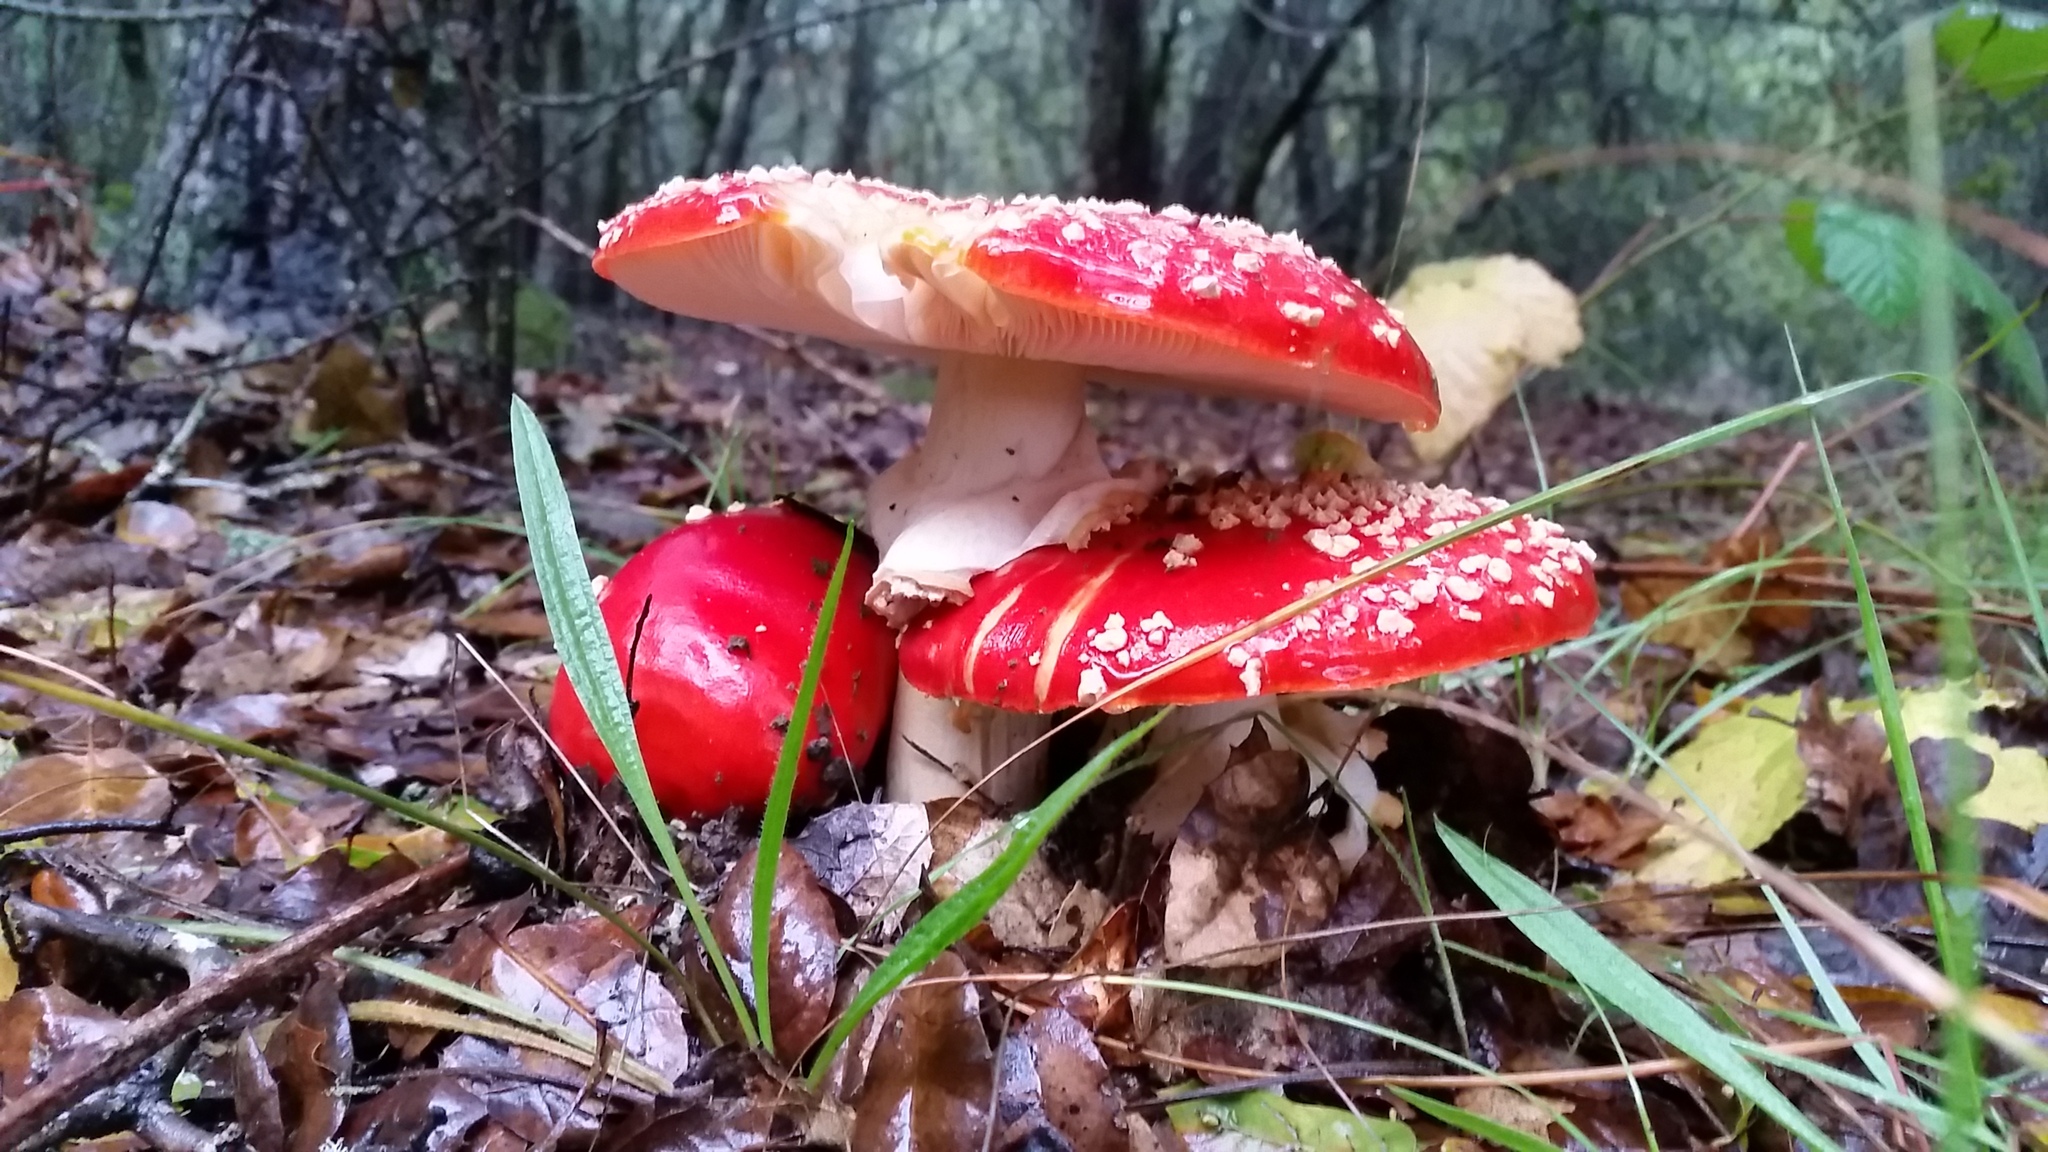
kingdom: Fungi
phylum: Basidiomycota
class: Agaricomycetes
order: Agaricales
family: Amanitaceae
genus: Amanita
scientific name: Amanita muscaria
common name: Fly agaric
